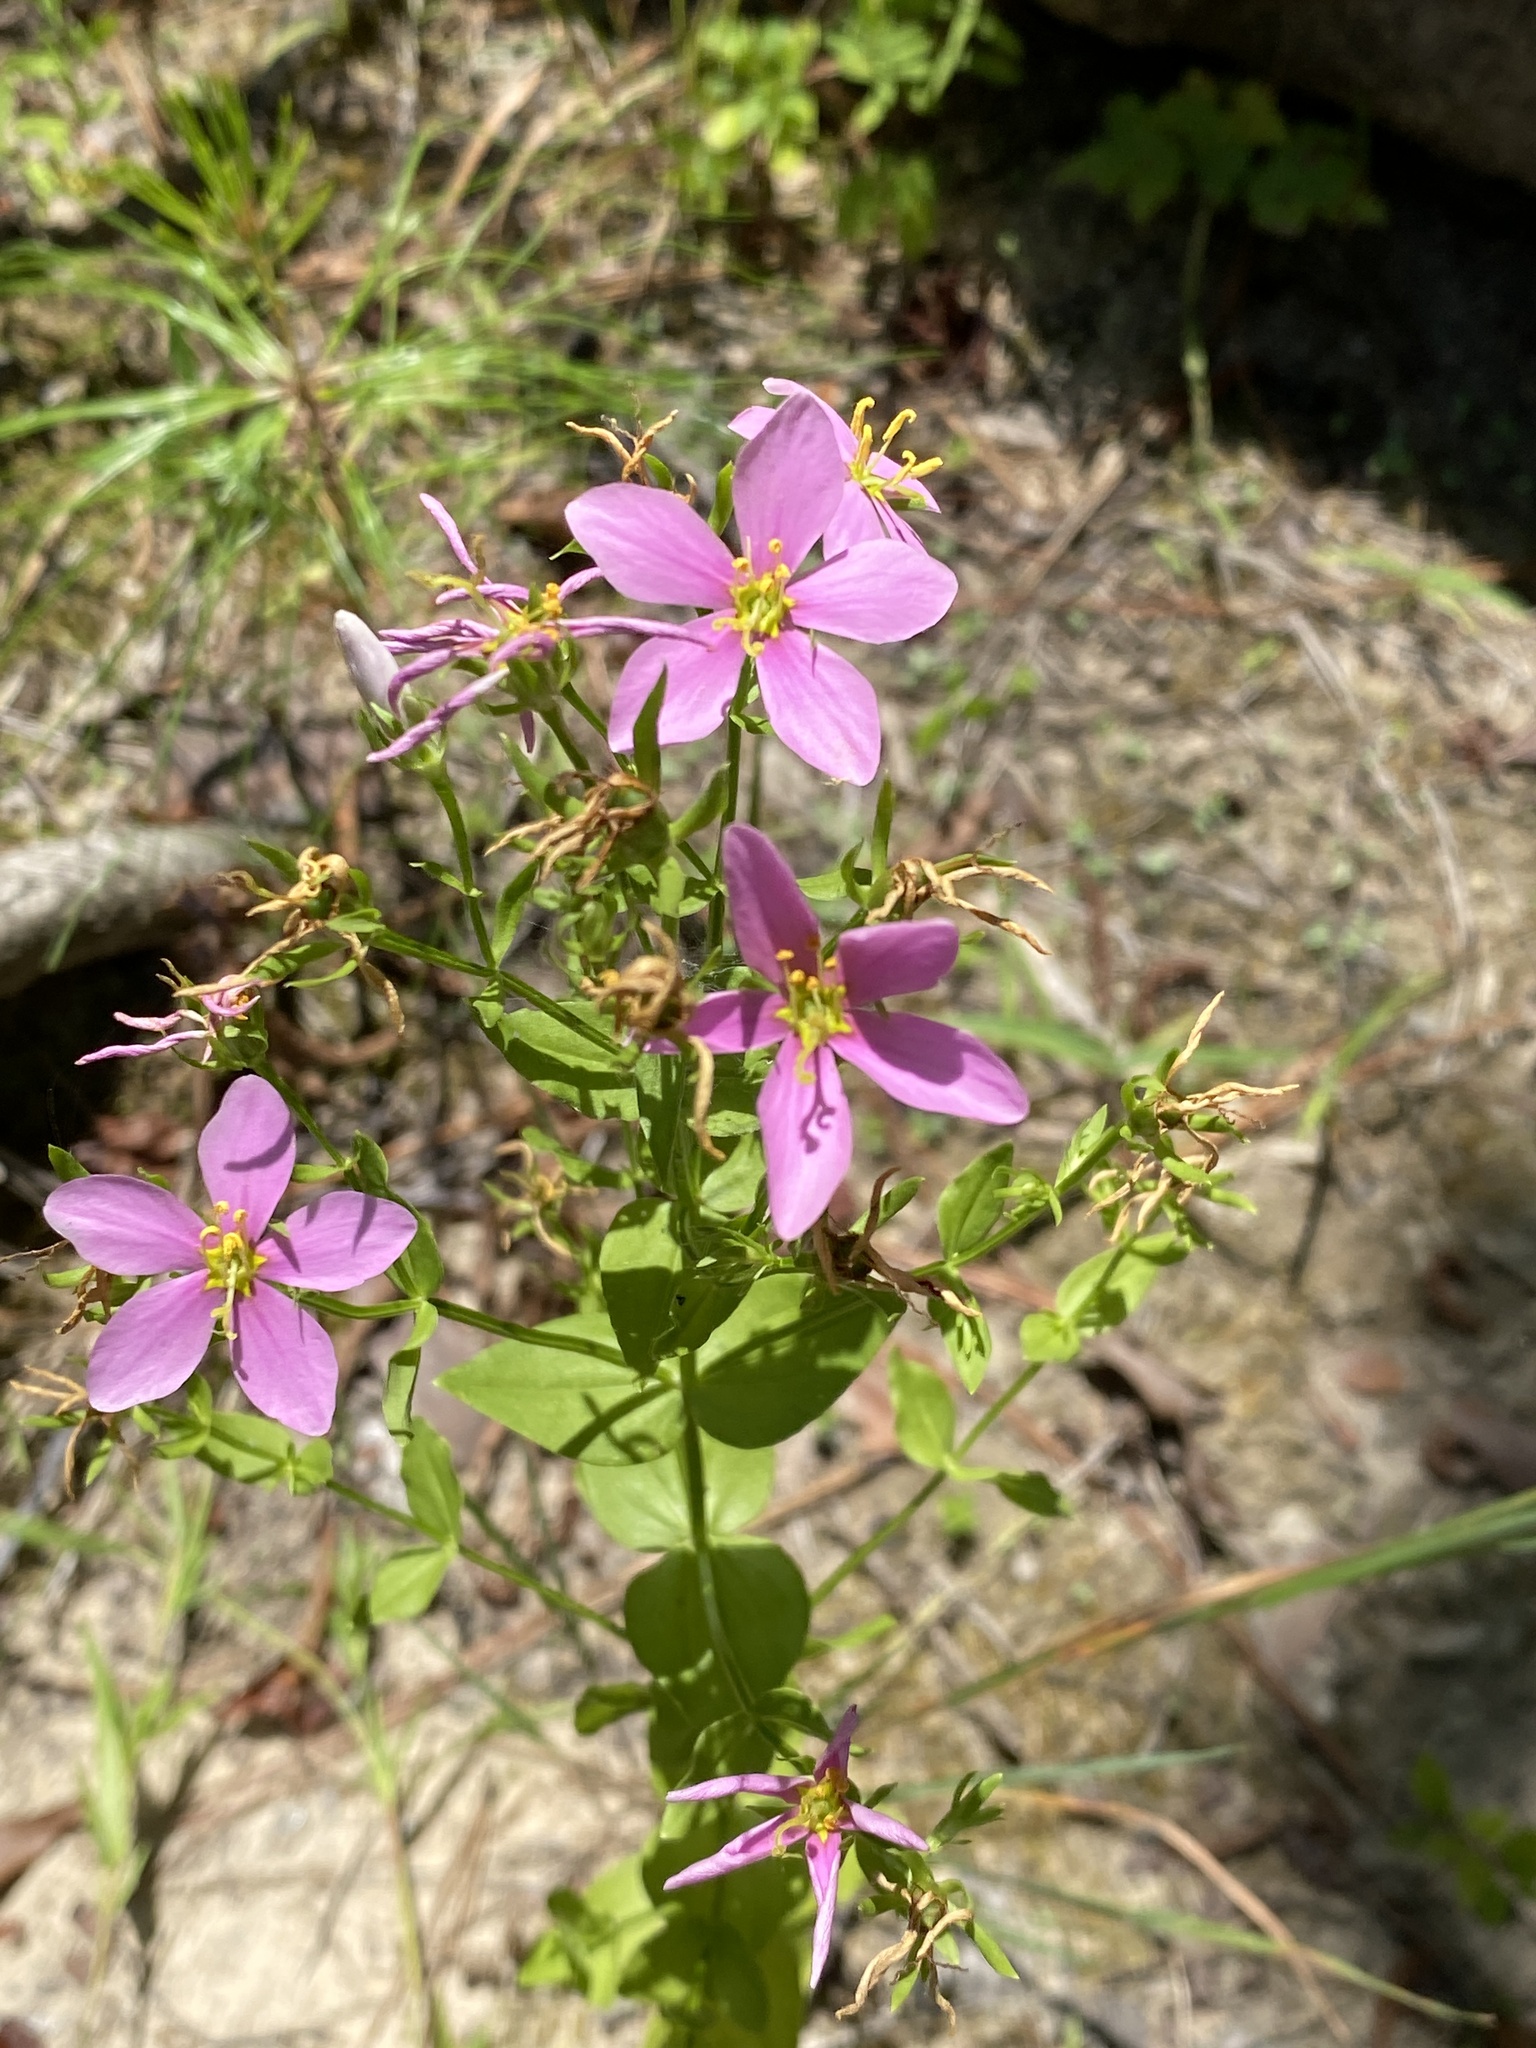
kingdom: Plantae
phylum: Tracheophyta
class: Magnoliopsida
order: Gentianales
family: Gentianaceae
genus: Sabatia
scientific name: Sabatia angularis
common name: Rose-pink
